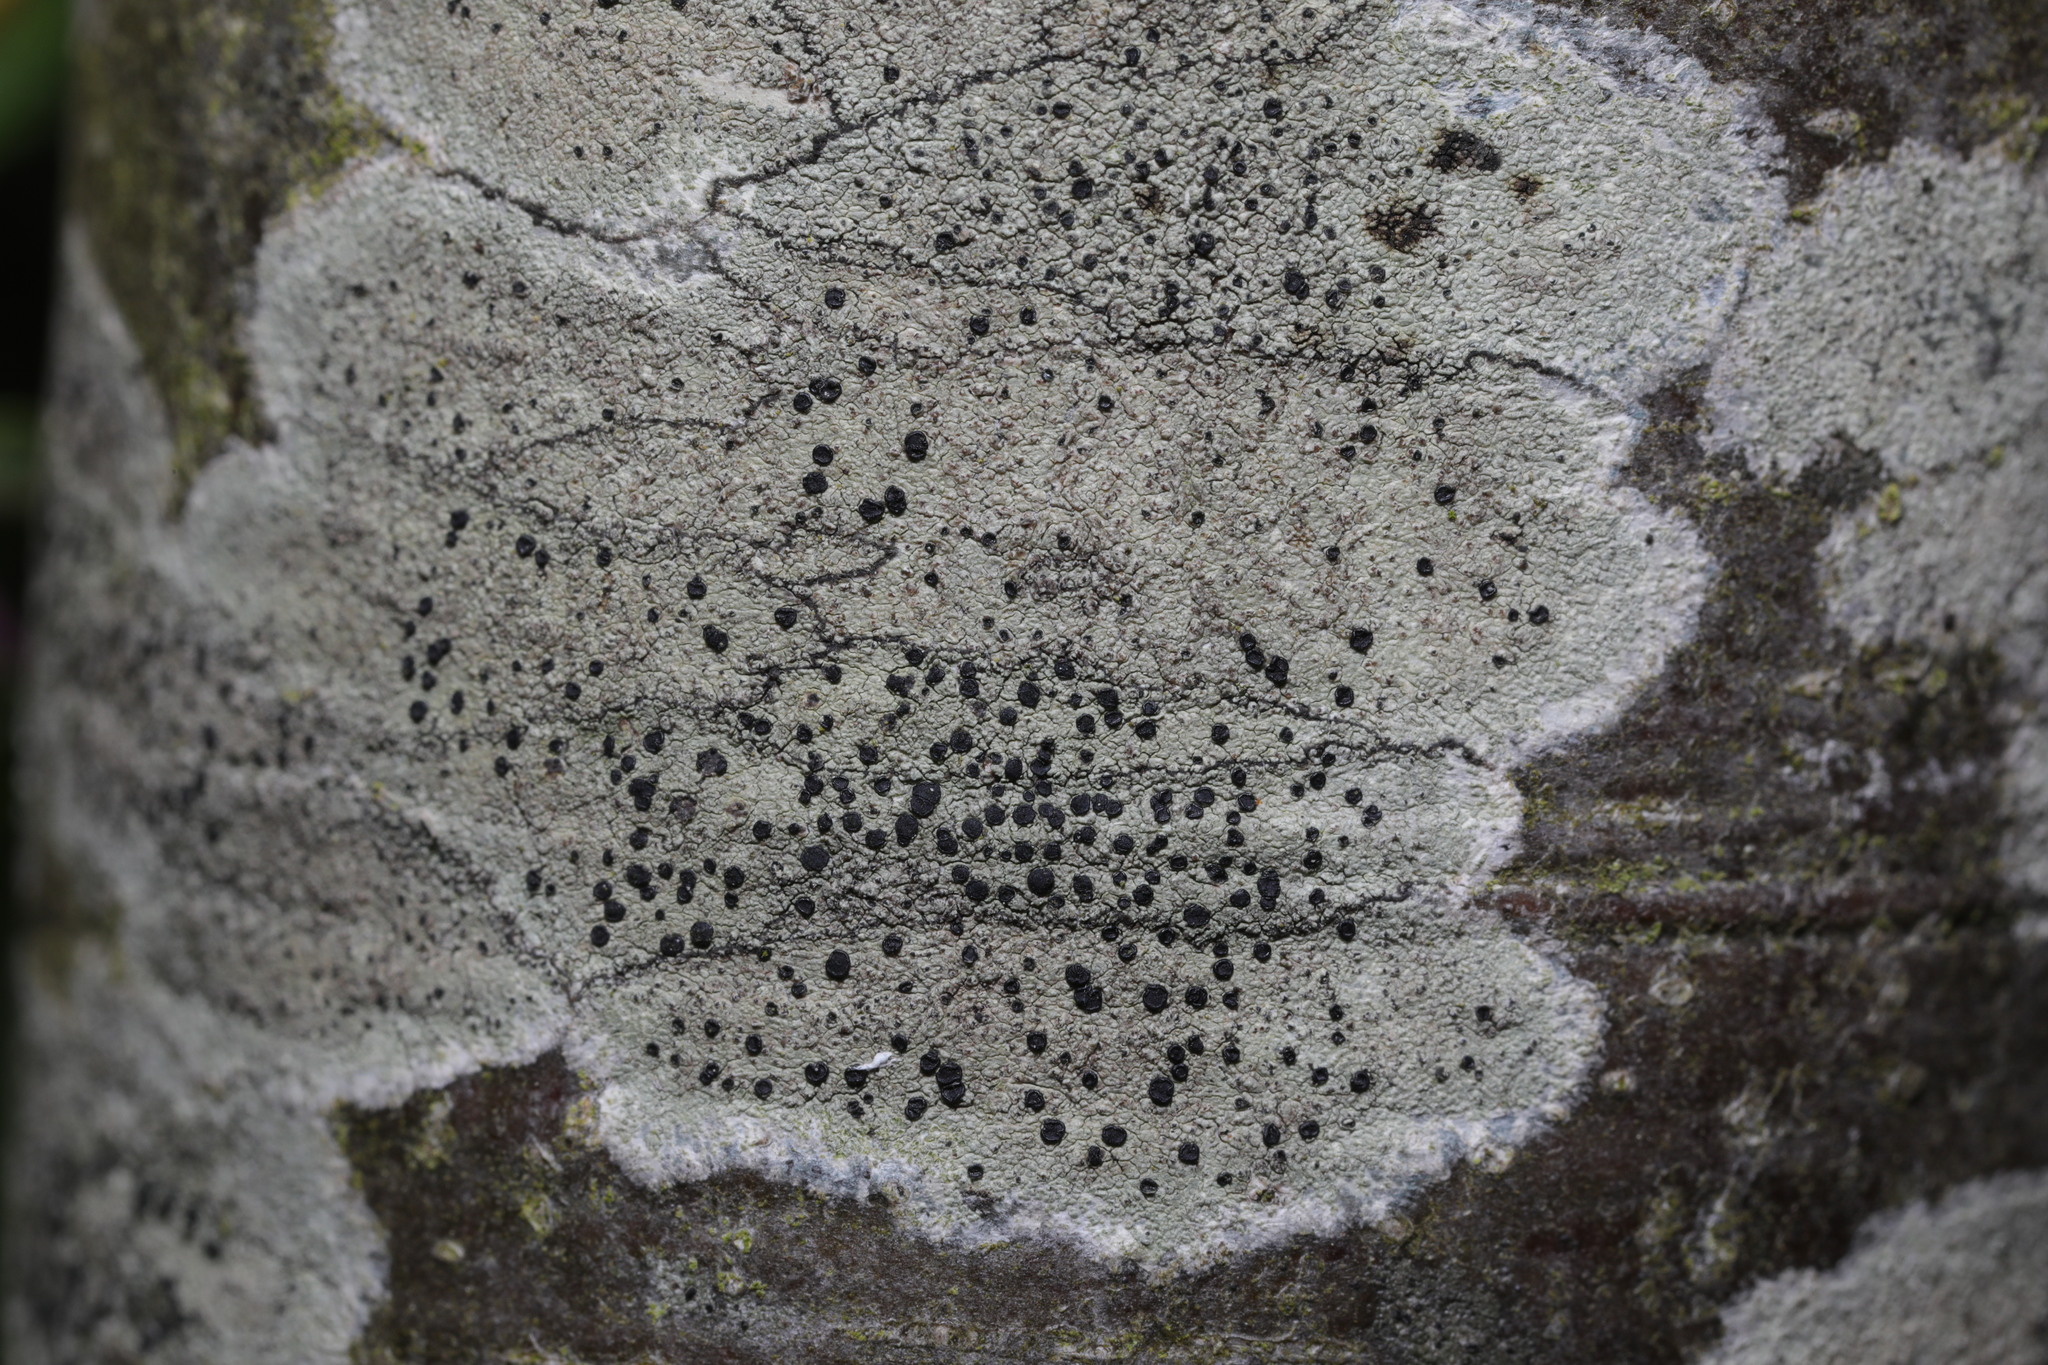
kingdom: Fungi
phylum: Ascomycota
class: Lecanoromycetes
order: Lecanorales
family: Lecanoraceae
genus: Lecidella
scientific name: Lecidella elaeochroma
